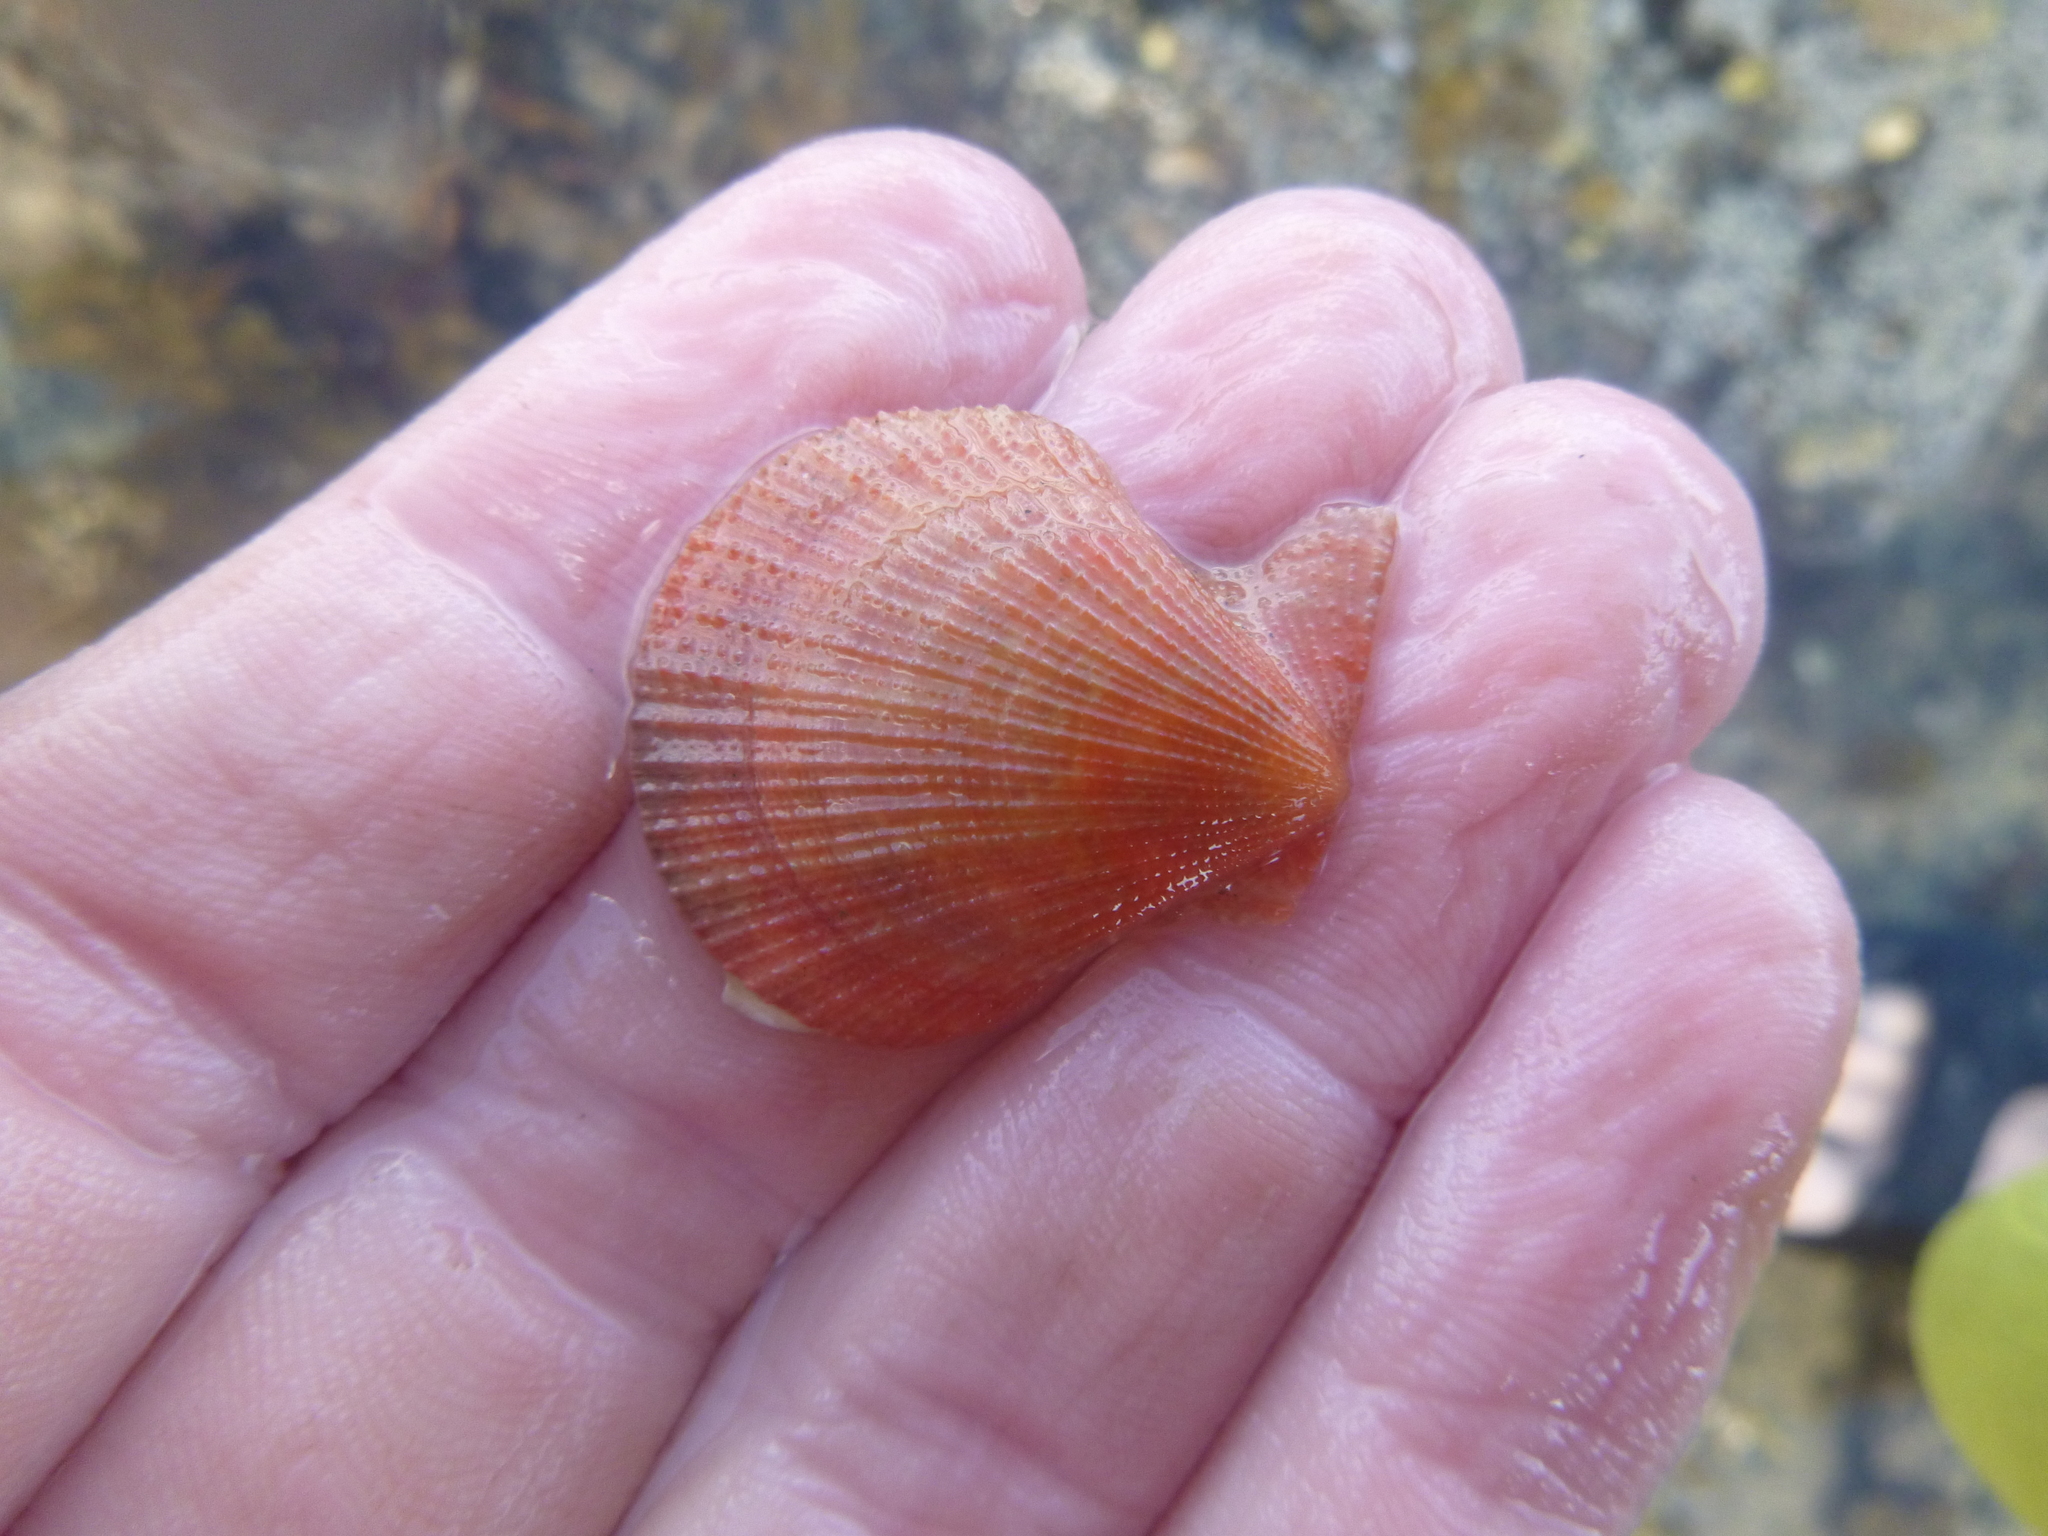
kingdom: Animalia
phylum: Mollusca
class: Bivalvia
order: Pectinida
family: Pectinidae
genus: Talochlamys
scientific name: Talochlamys zelandiae
